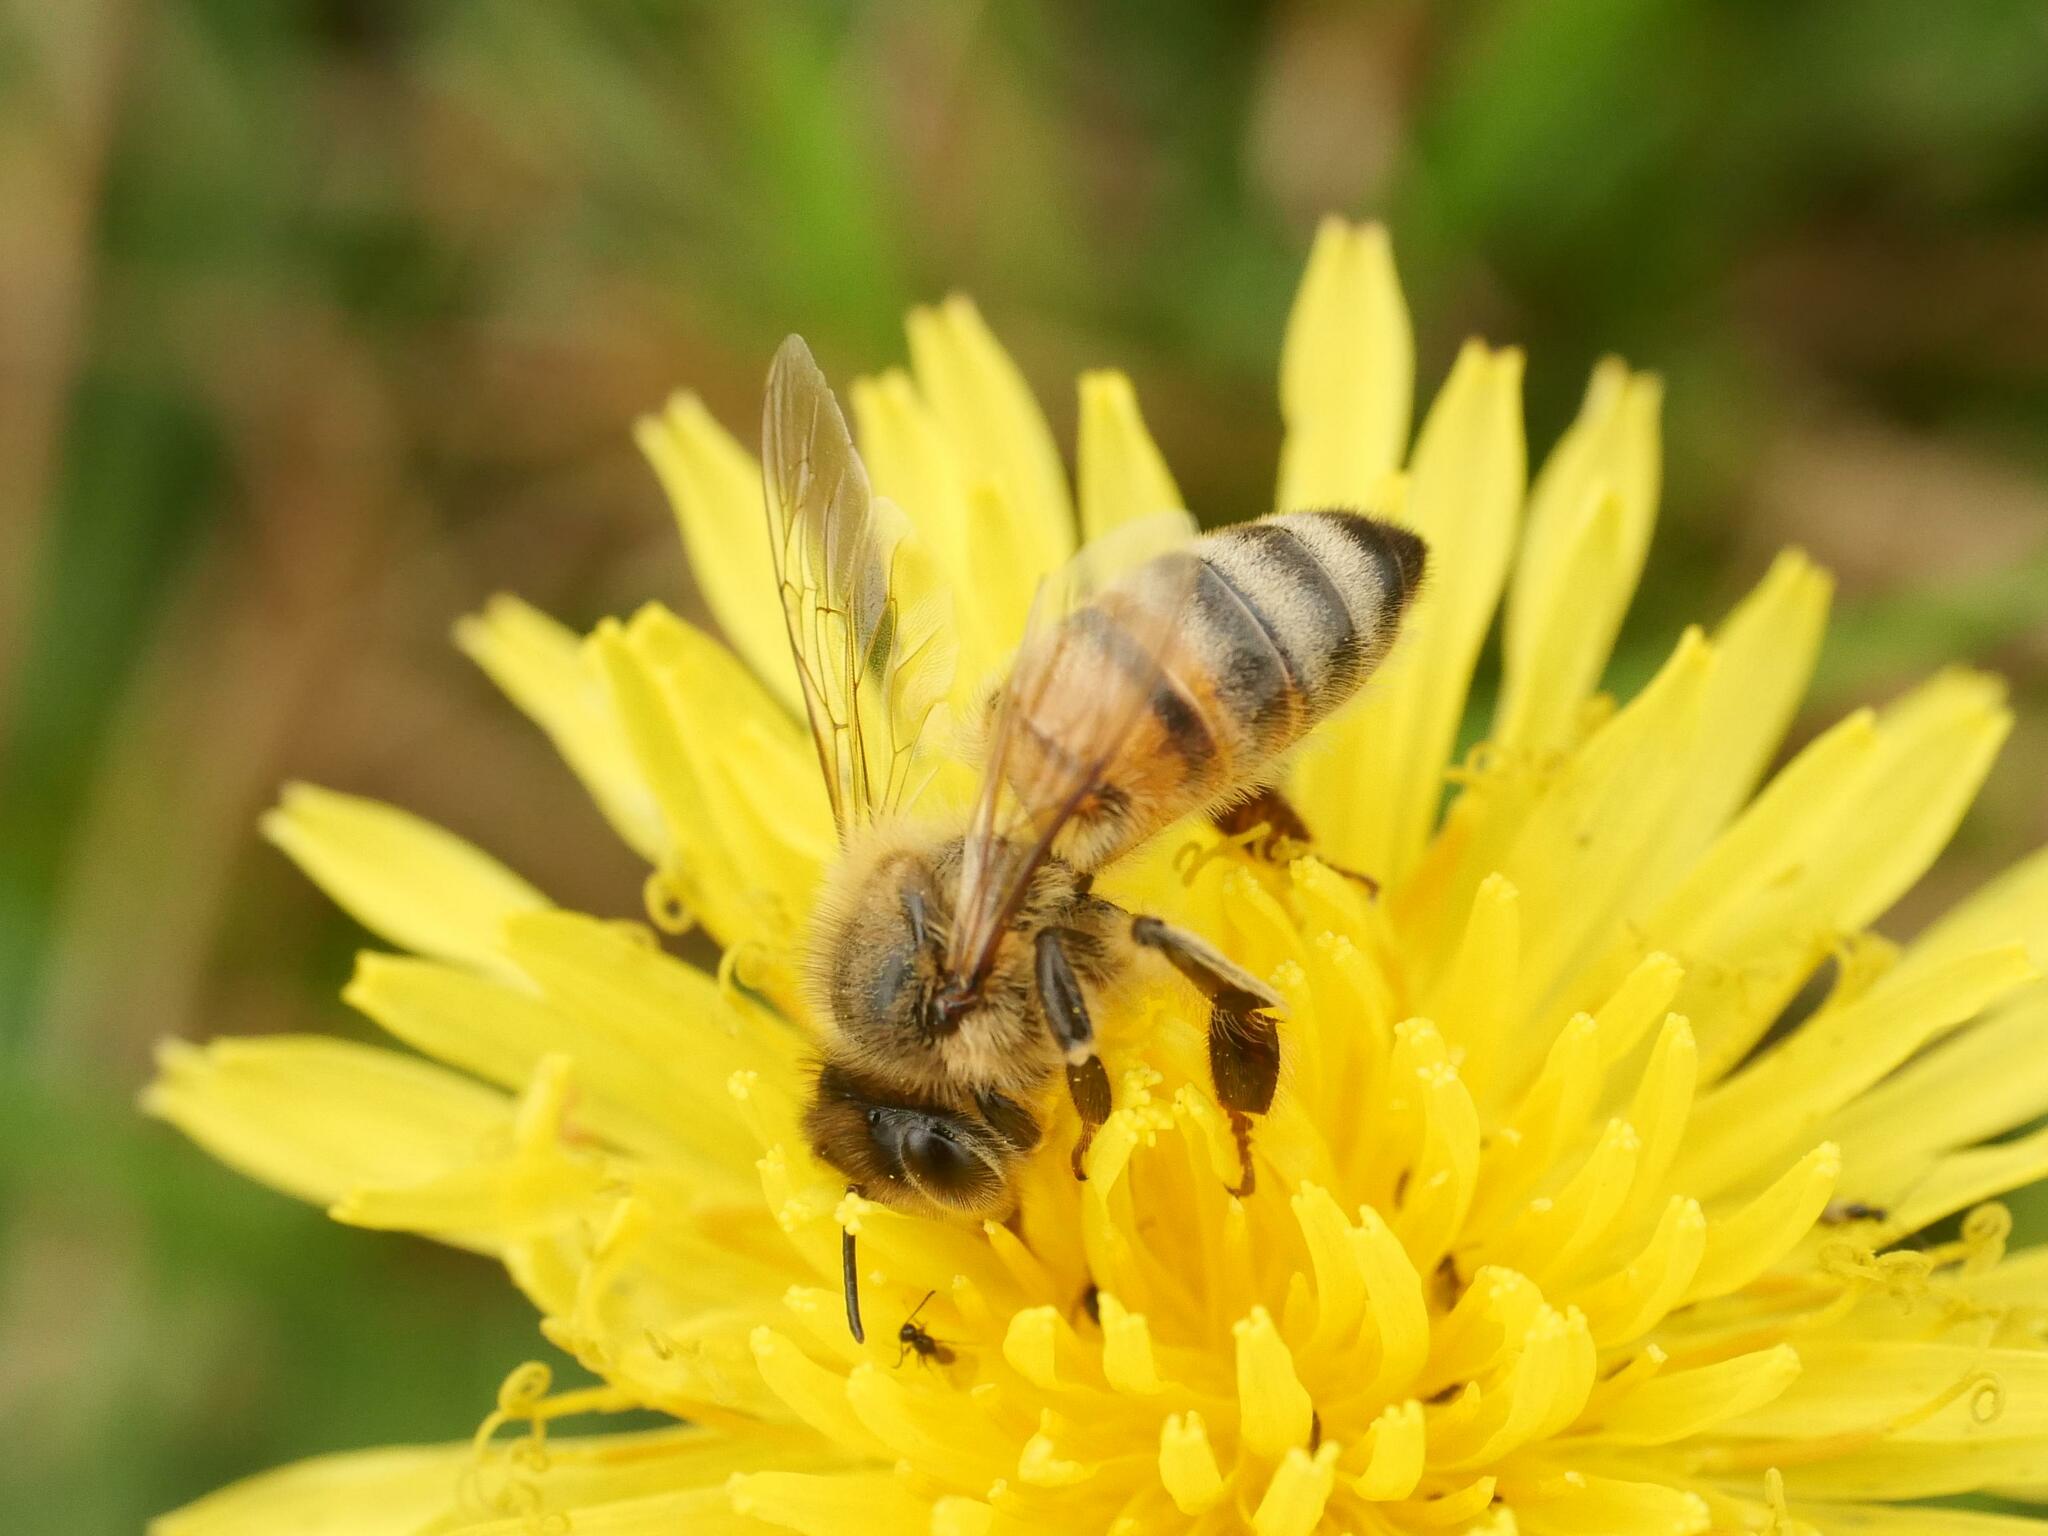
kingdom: Animalia
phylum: Arthropoda
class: Insecta
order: Hymenoptera
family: Apidae
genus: Apis
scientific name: Apis mellifera
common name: Honey bee
